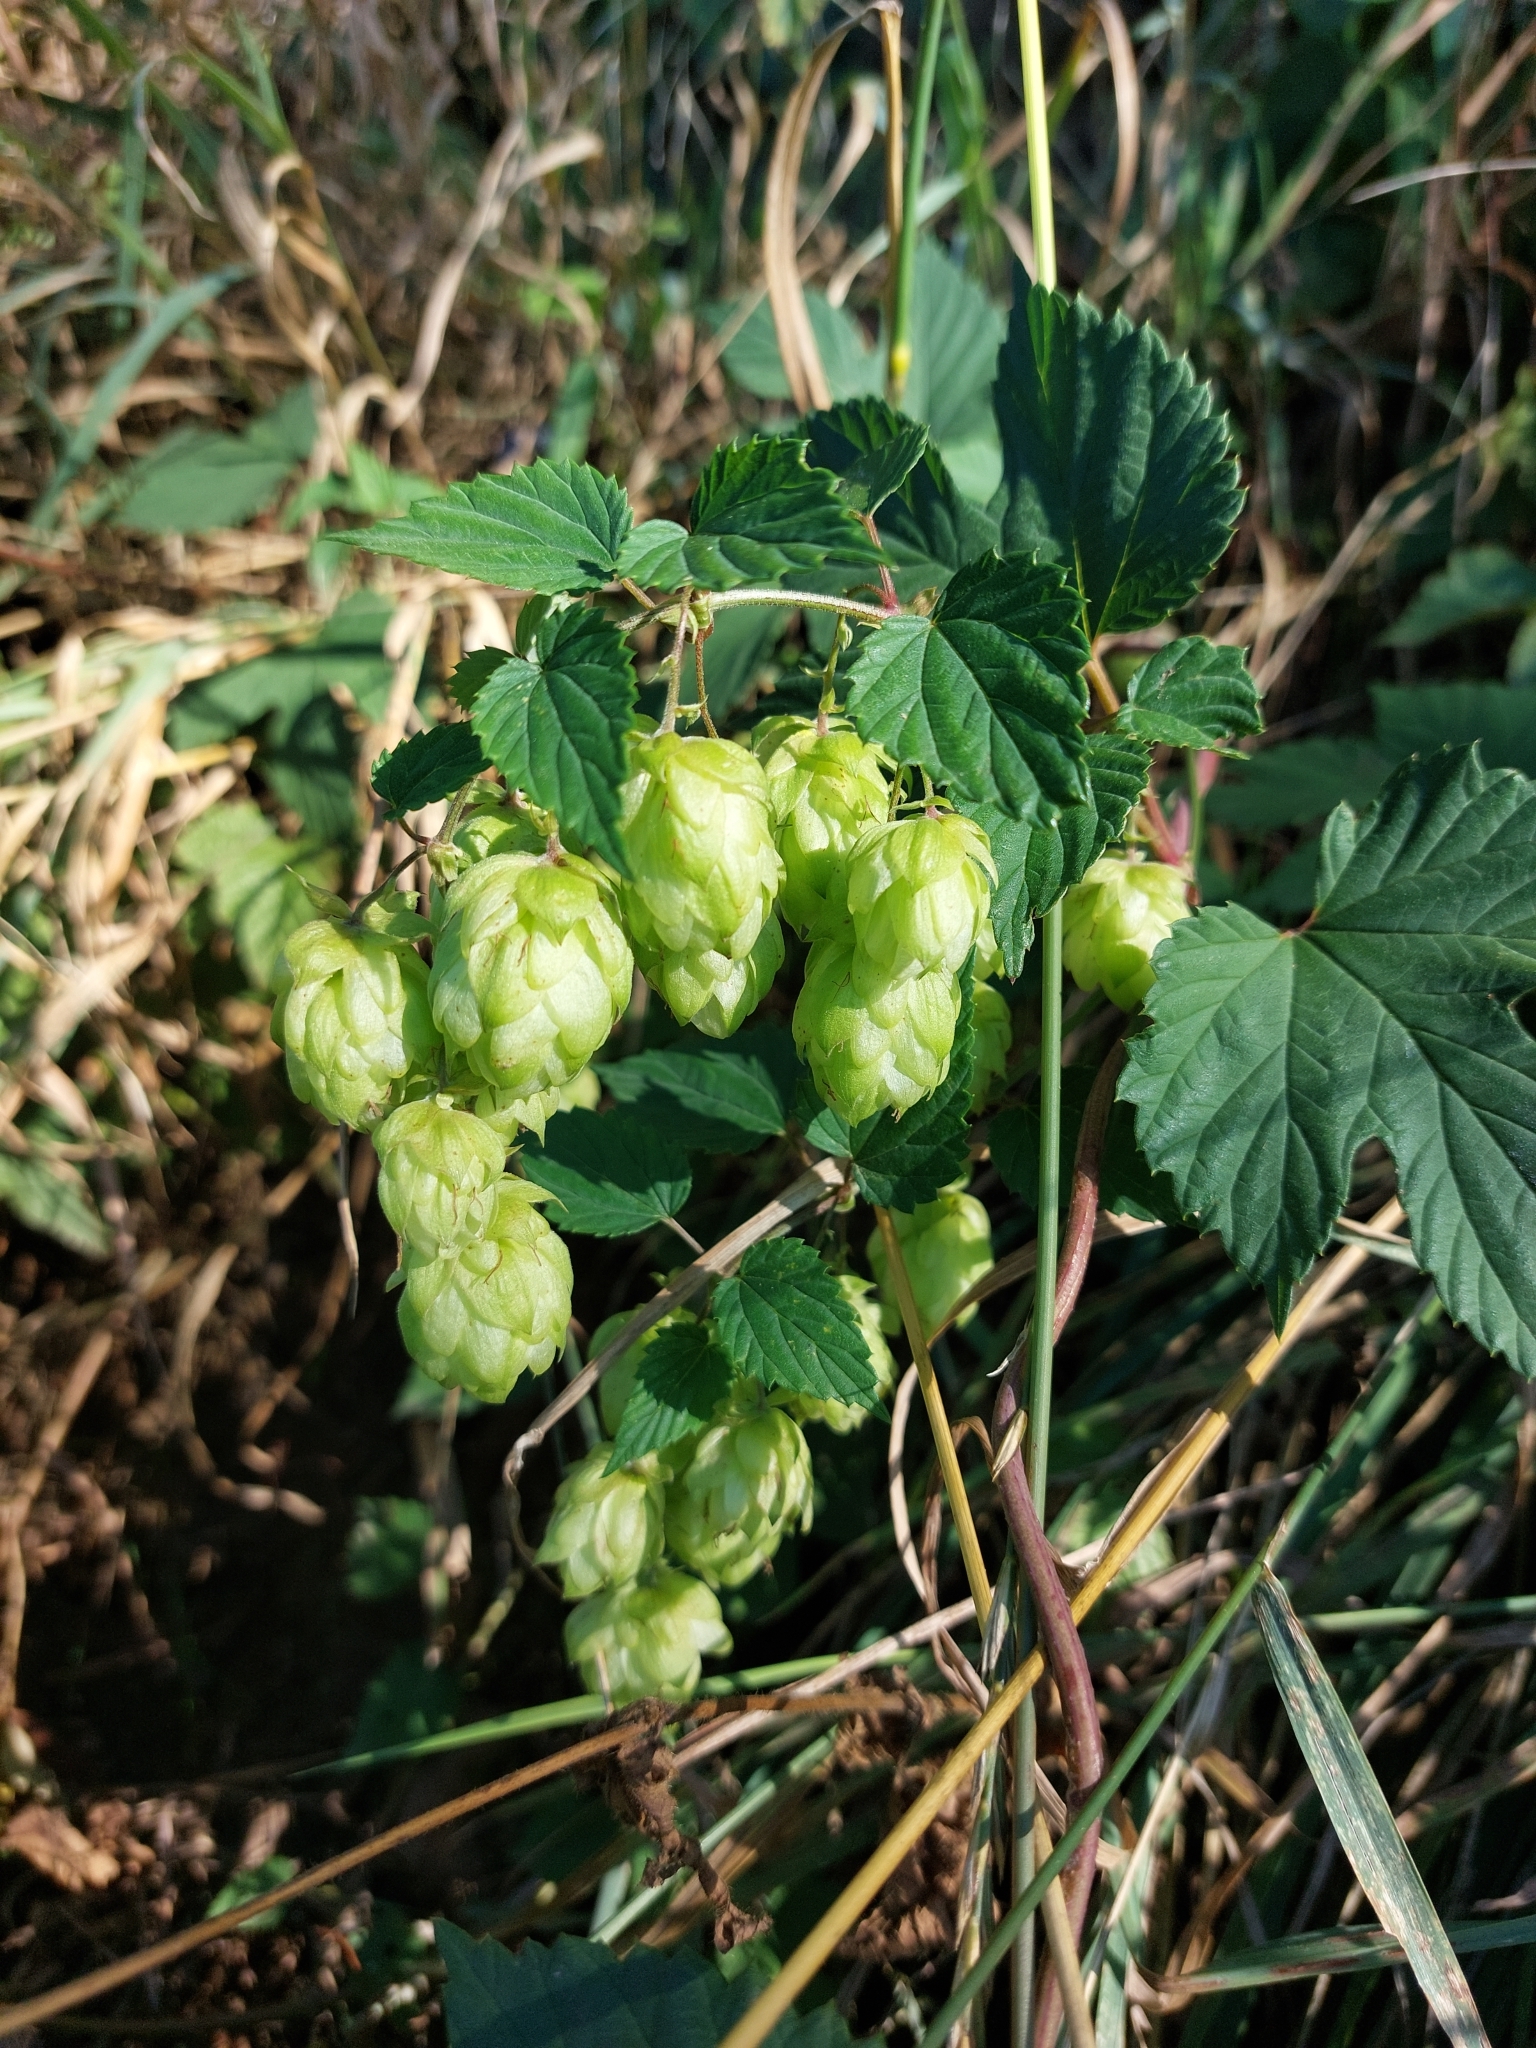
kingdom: Plantae
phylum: Tracheophyta
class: Magnoliopsida
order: Rosales
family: Cannabaceae
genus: Humulus
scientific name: Humulus lupulus
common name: Hop
